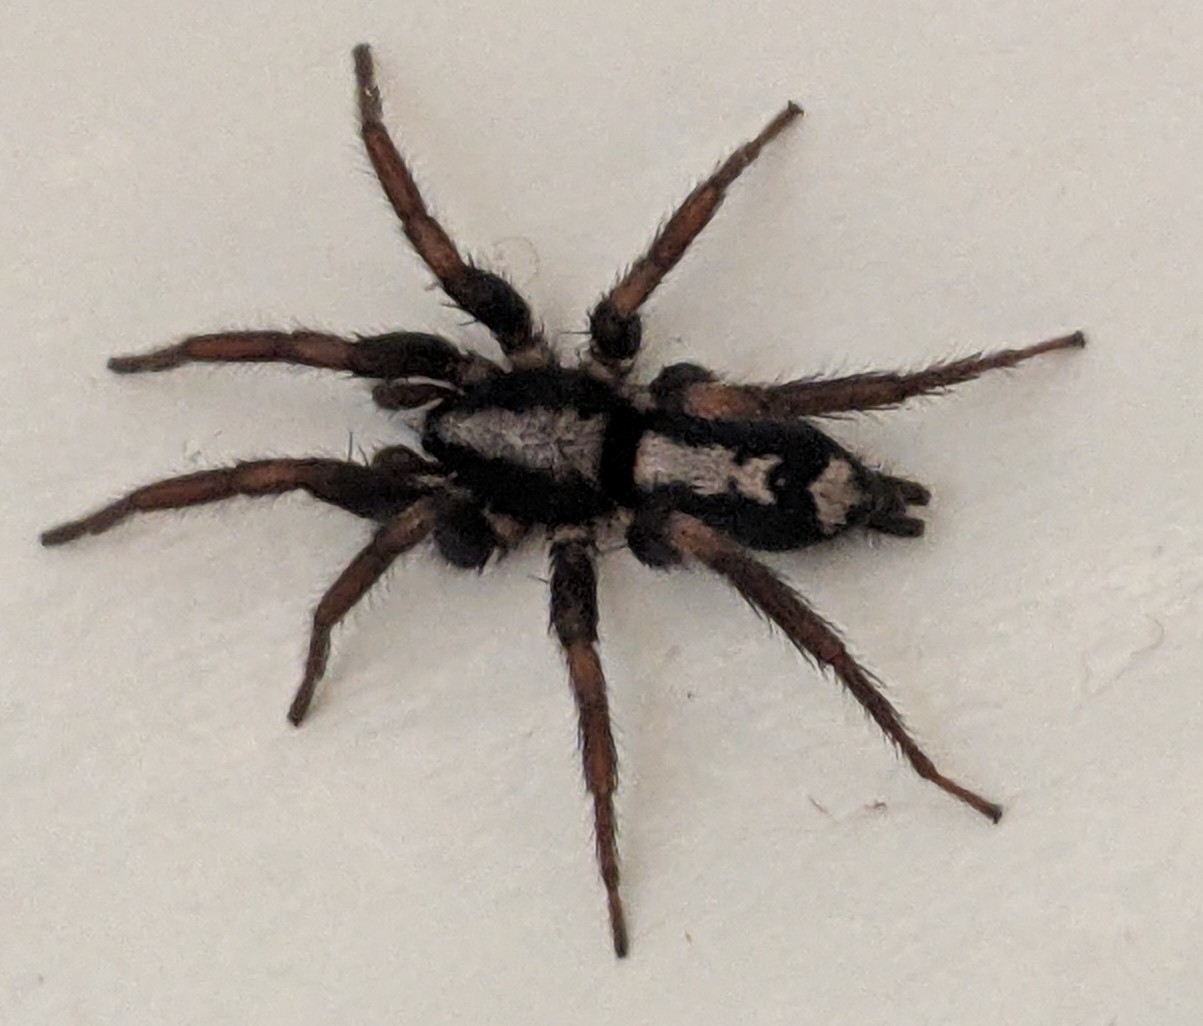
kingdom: Animalia
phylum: Arthropoda
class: Arachnida
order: Araneae
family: Gnaphosidae
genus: Herpyllus
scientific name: Herpyllus ecclesiasticus
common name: Eastern parson spider
